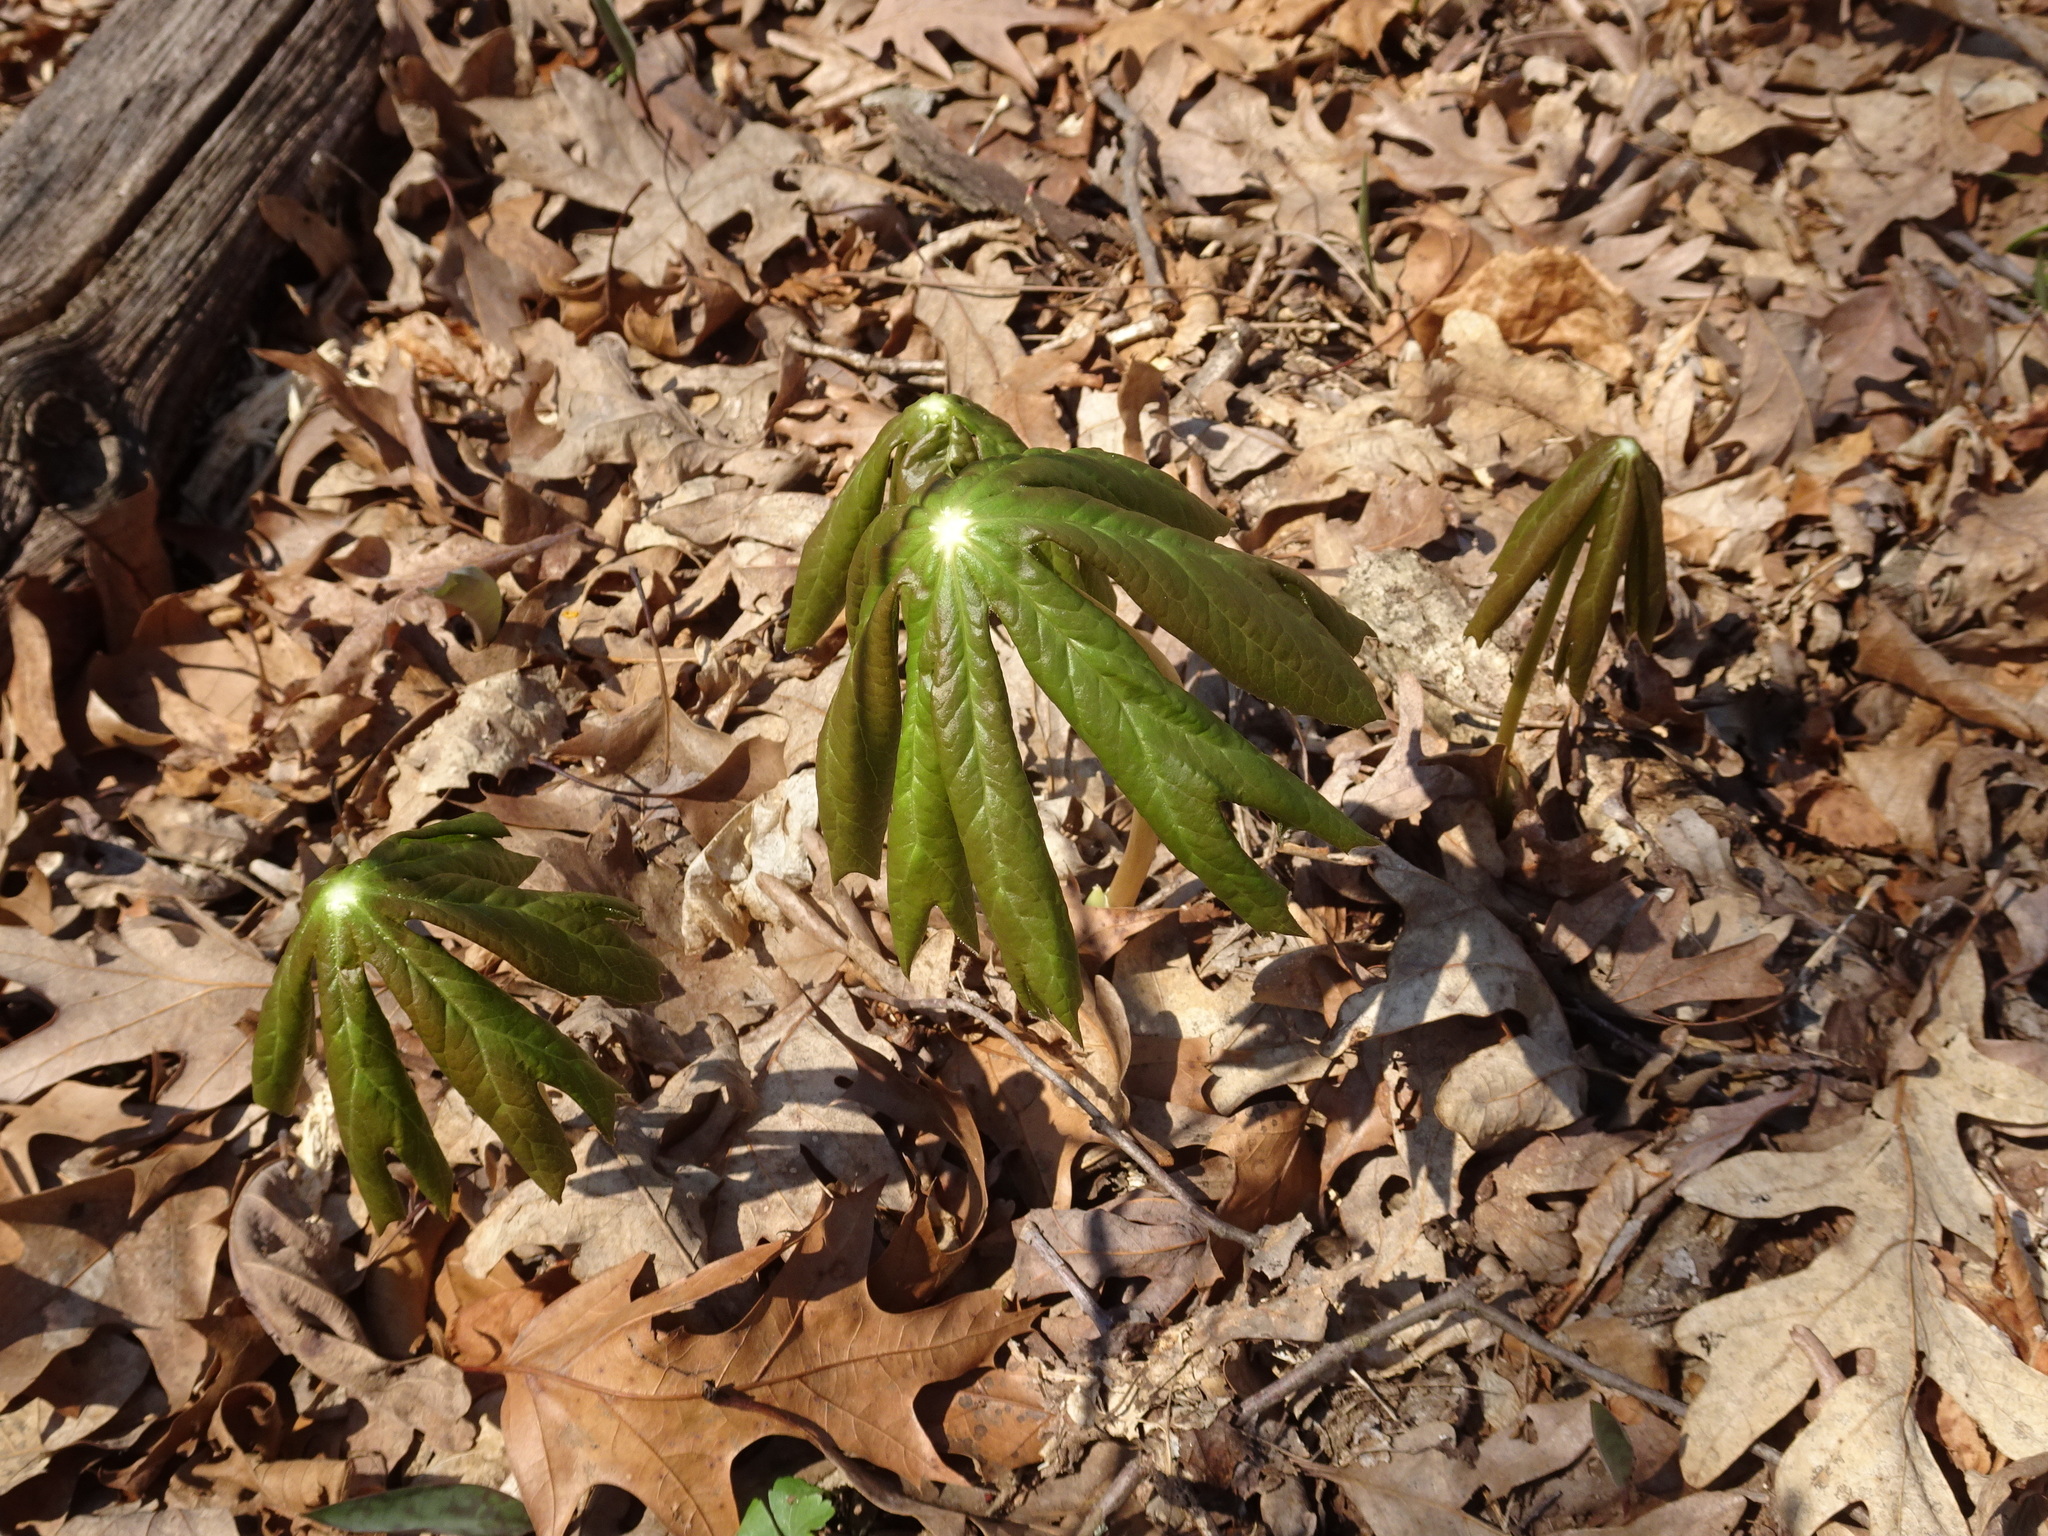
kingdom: Plantae
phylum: Tracheophyta
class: Magnoliopsida
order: Ranunculales
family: Berberidaceae
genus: Podophyllum
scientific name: Podophyllum peltatum
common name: Wild mandrake
